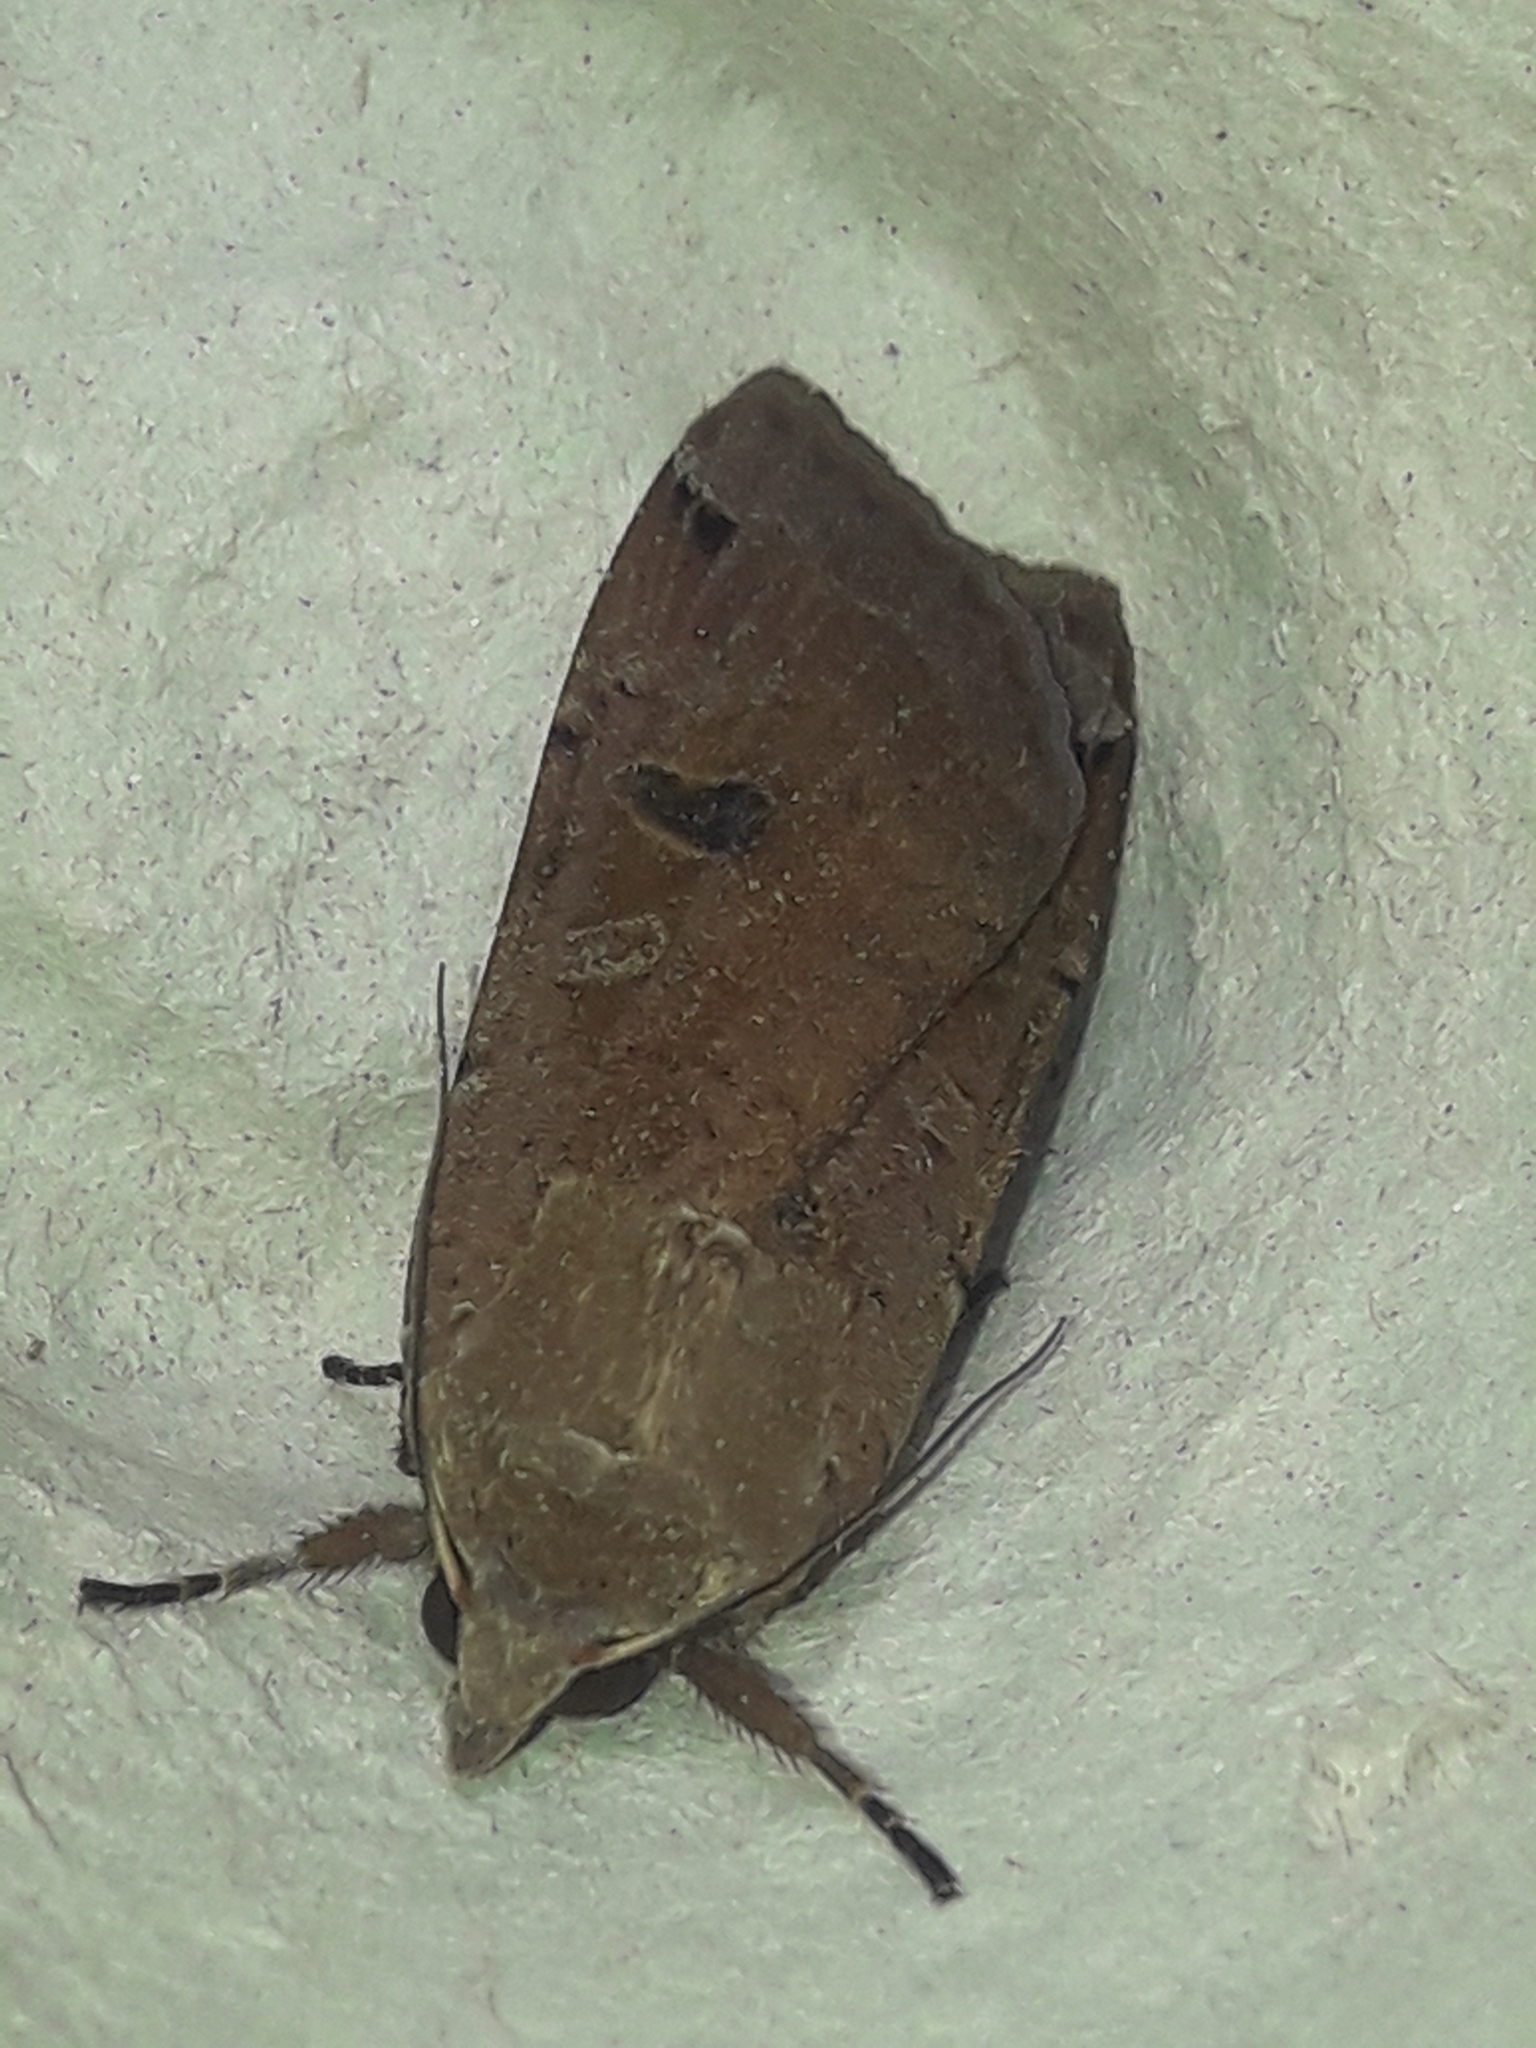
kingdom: Animalia
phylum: Arthropoda
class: Insecta
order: Lepidoptera
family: Noctuidae
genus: Noctua
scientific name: Noctua pronuba
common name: Large yellow underwing
